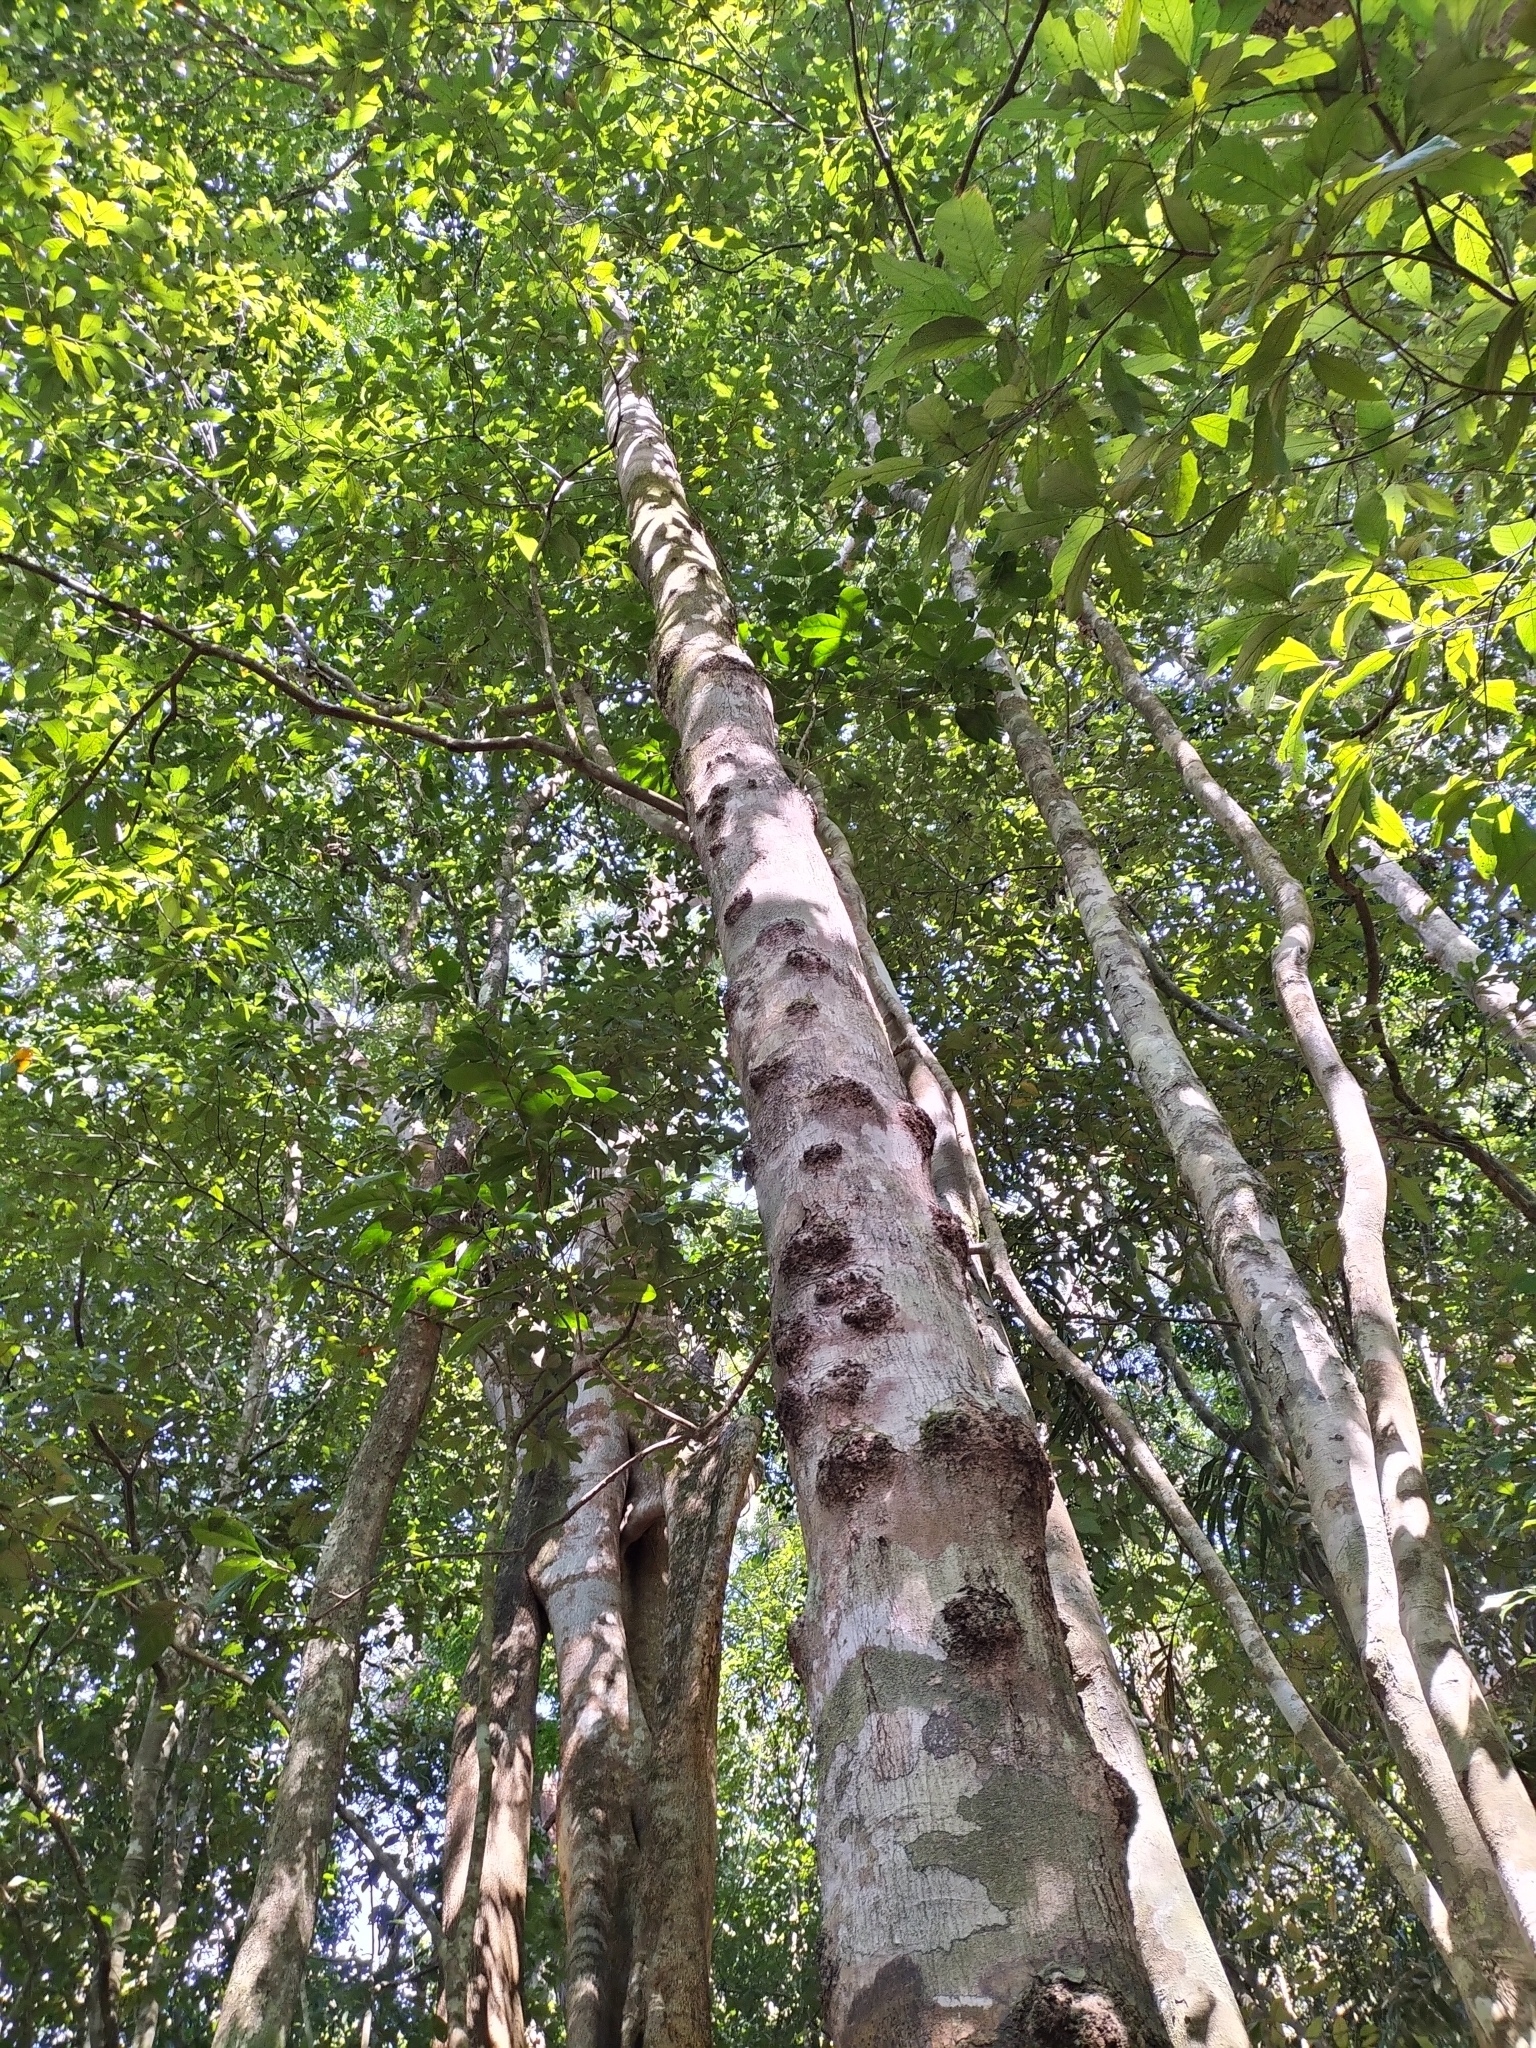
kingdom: Plantae
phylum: Tracheophyta
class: Magnoliopsida
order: Myrtales
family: Myrtaceae
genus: Syzygium
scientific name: Syzygium cormiflorum
